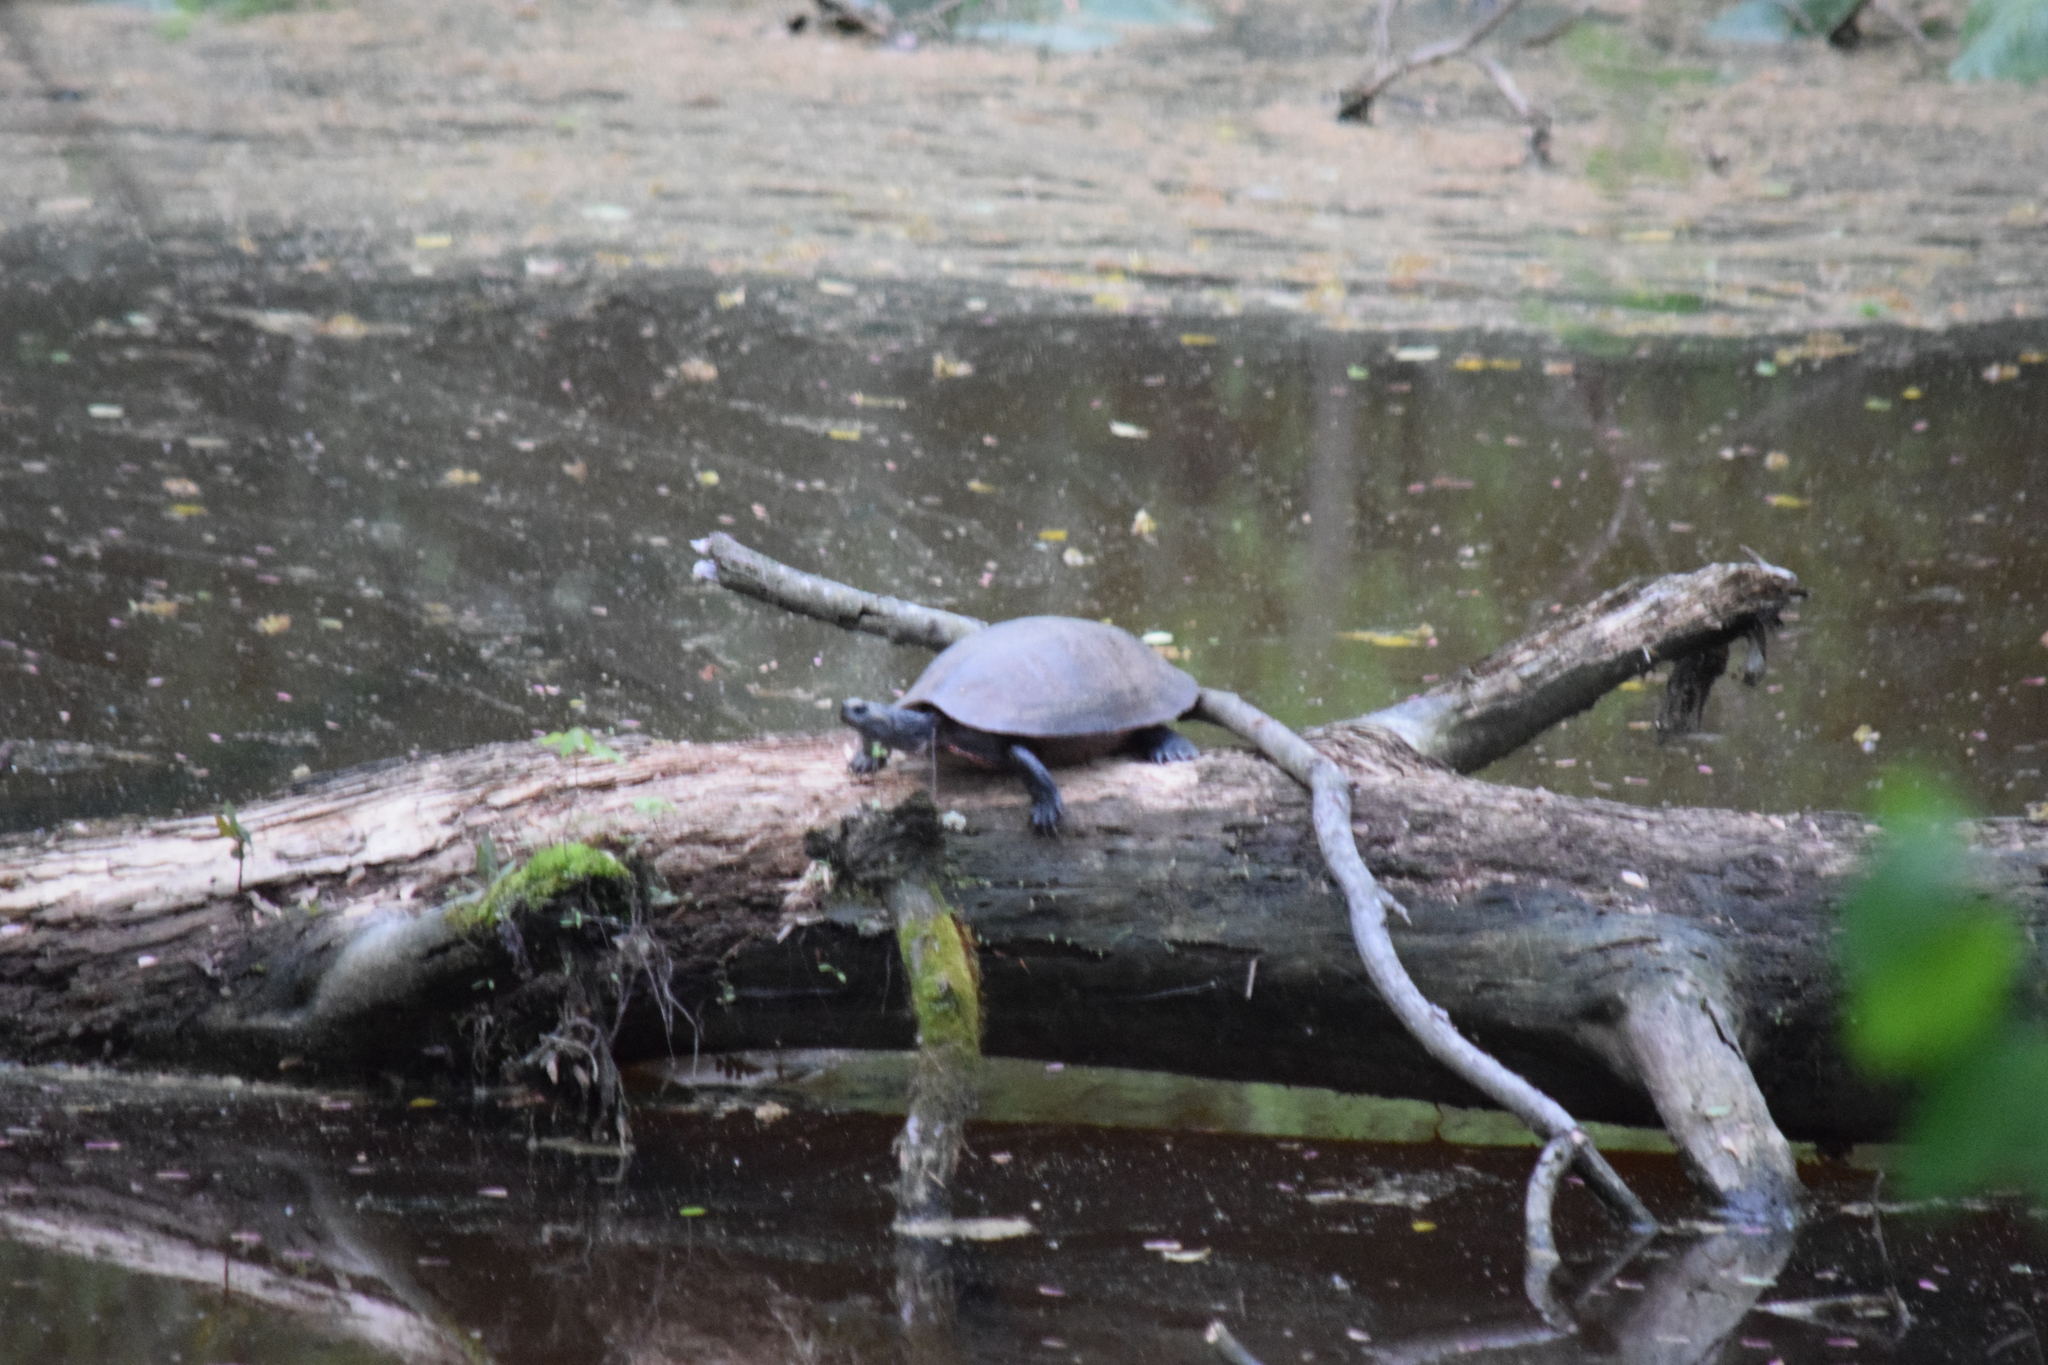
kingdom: Animalia
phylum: Chordata
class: Testudines
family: Emydidae
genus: Pseudemys
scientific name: Pseudemys rubriventris
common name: American red-bellied turtle
